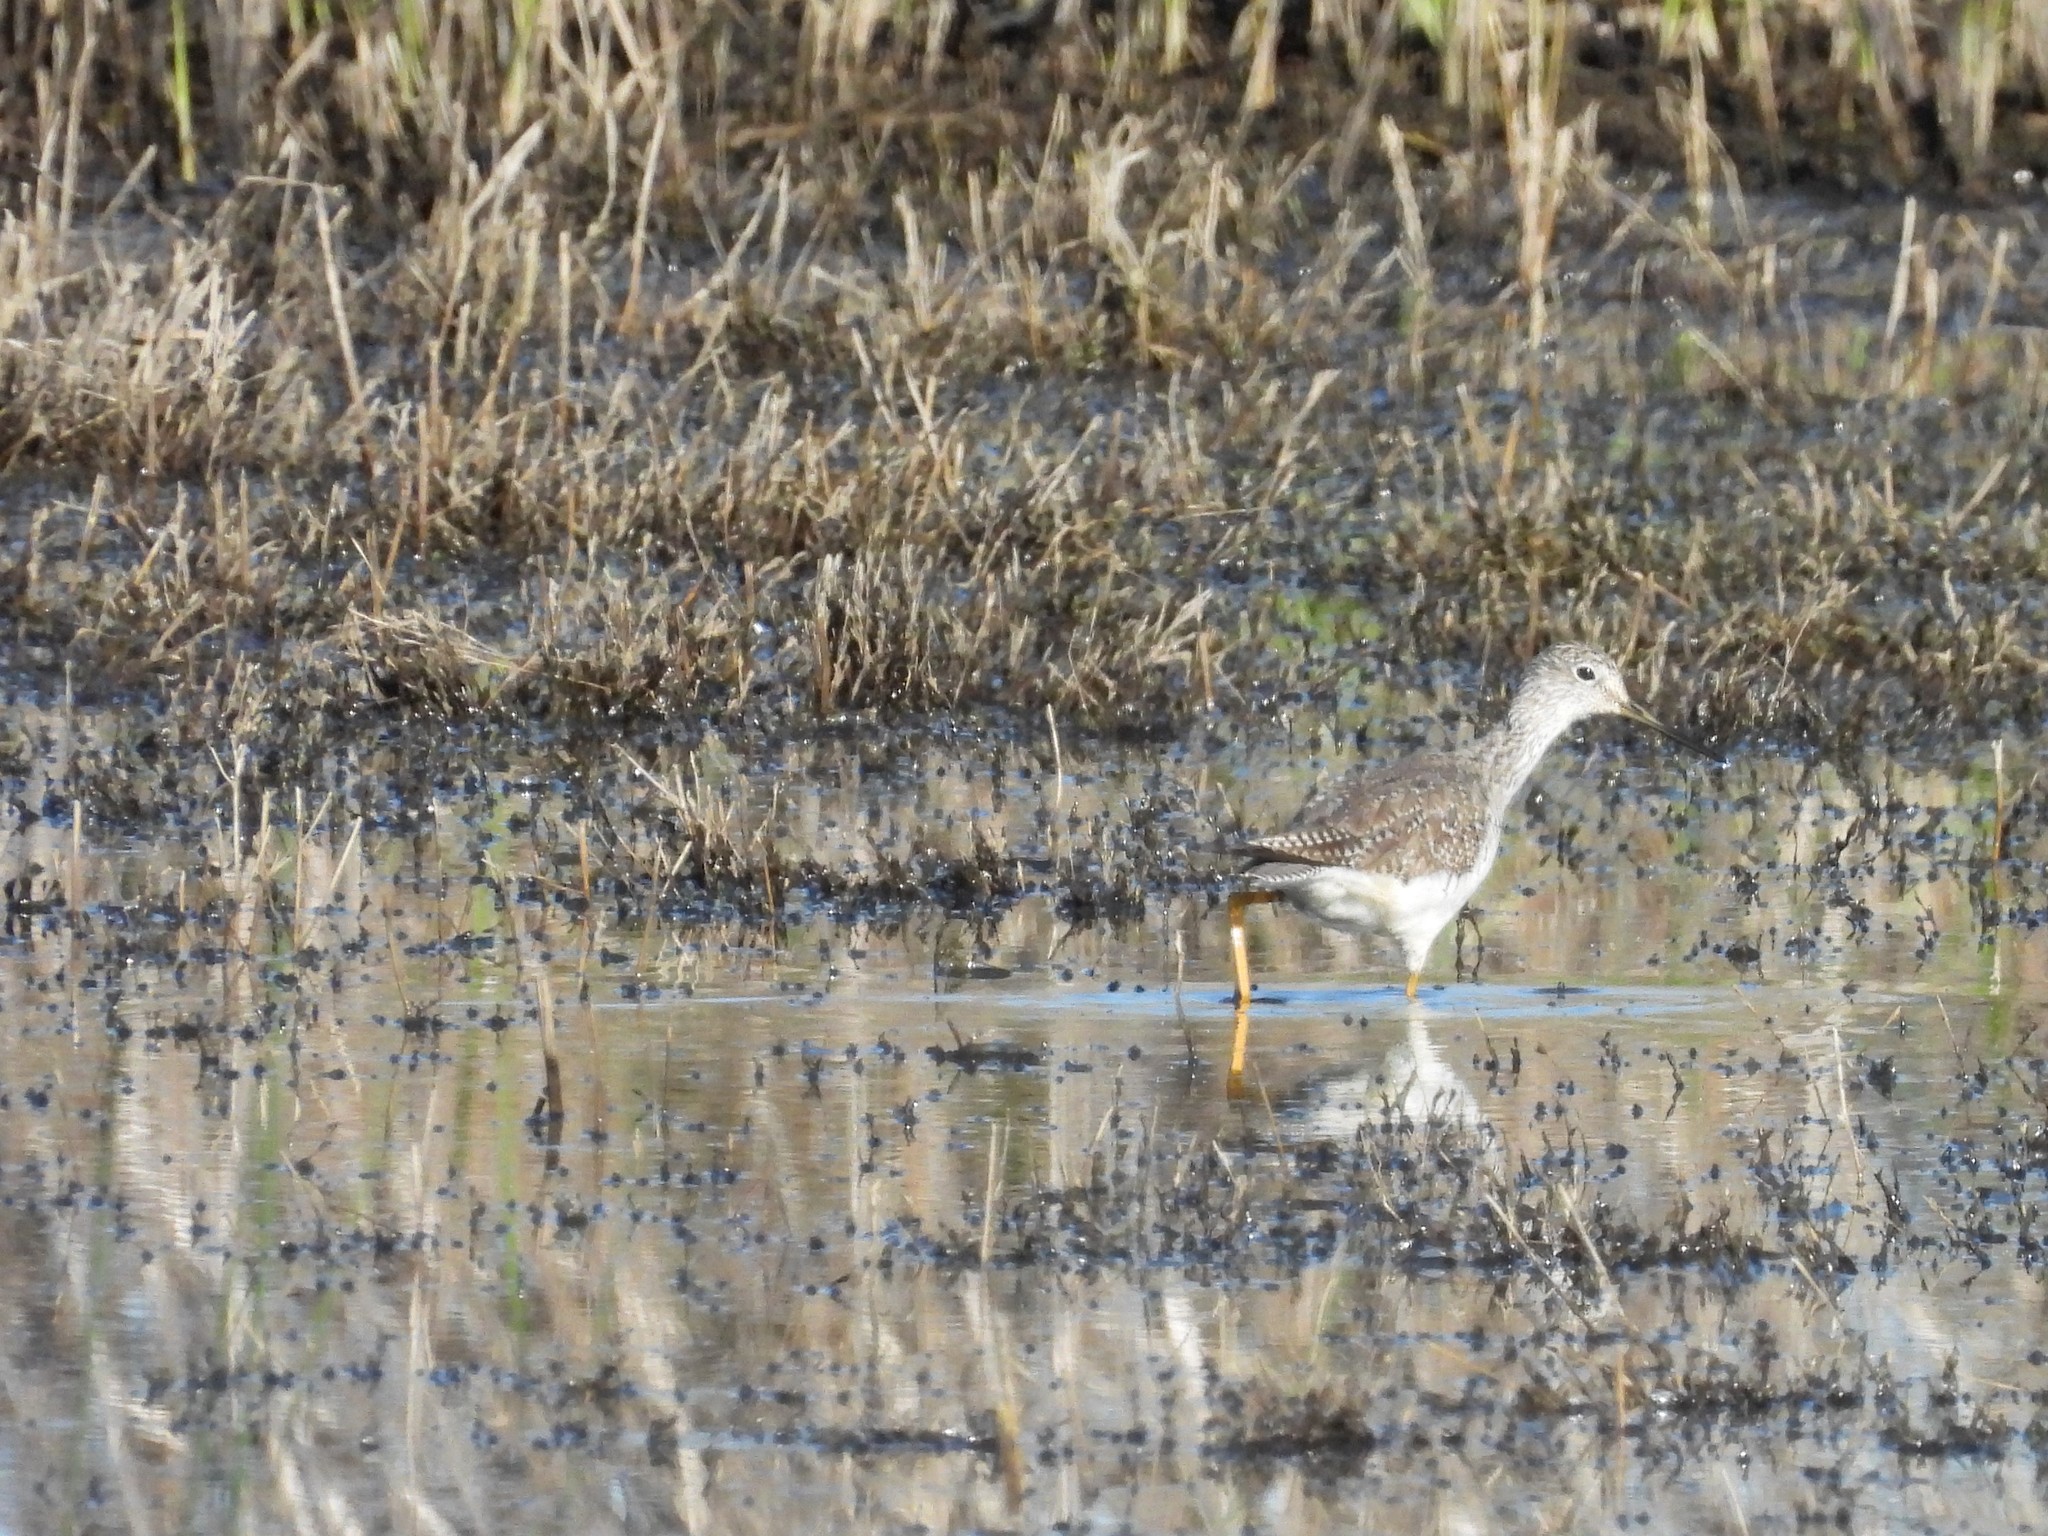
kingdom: Animalia
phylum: Chordata
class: Aves
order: Charadriiformes
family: Scolopacidae
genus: Tringa
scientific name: Tringa melanoleuca
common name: Greater yellowlegs
